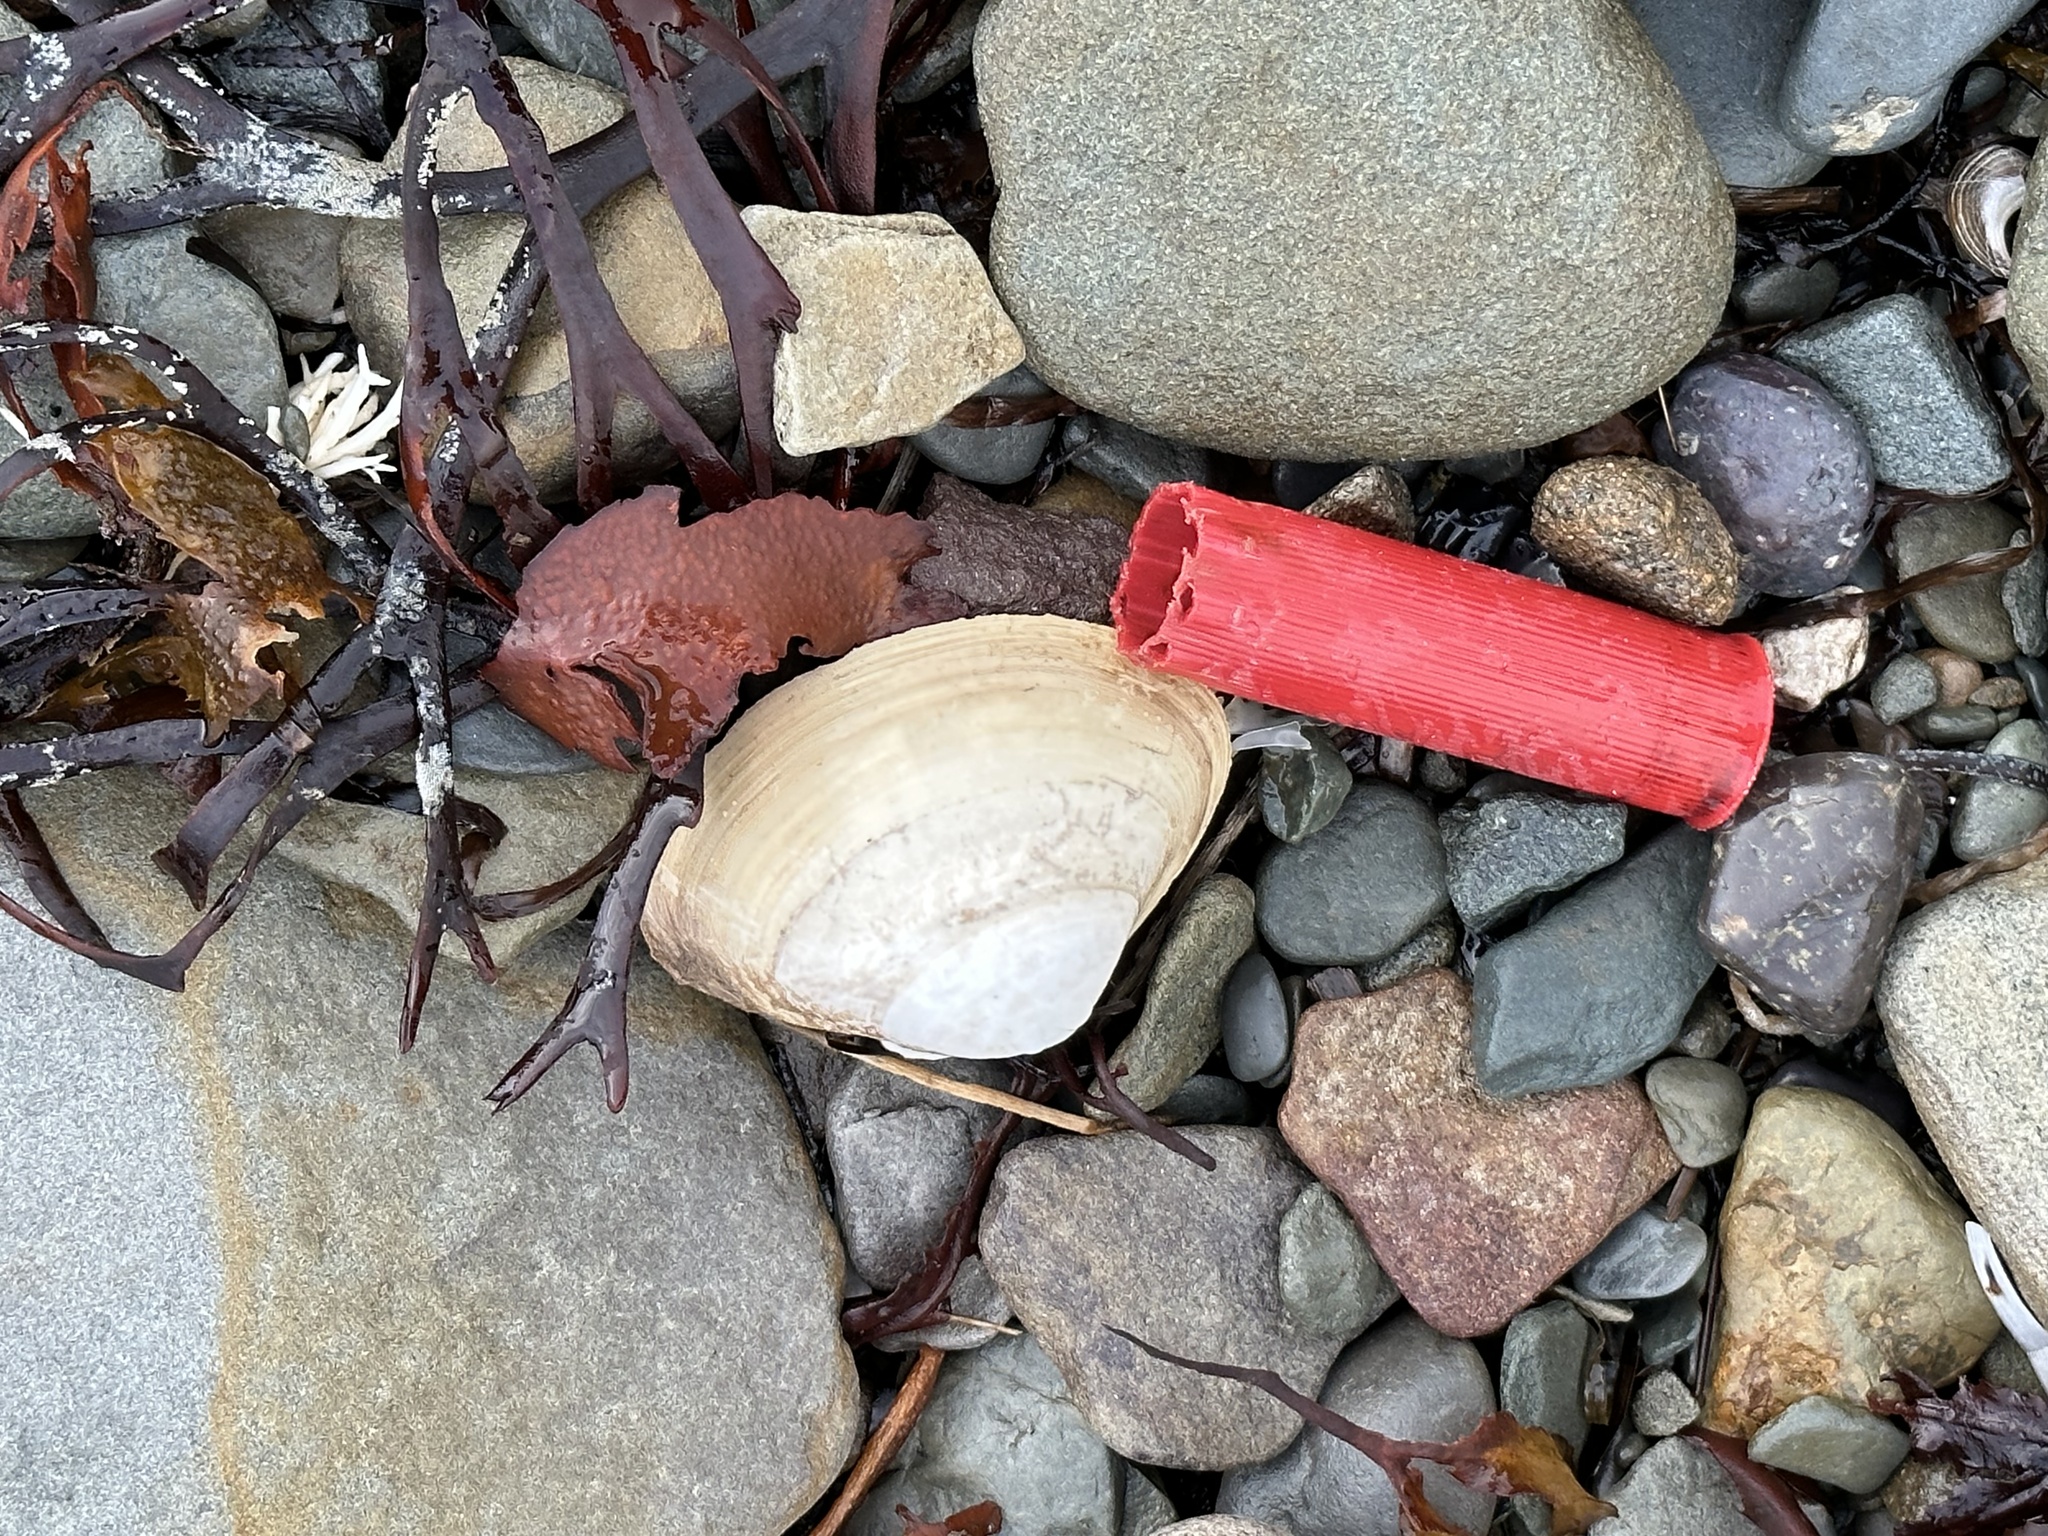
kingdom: Animalia
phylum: Mollusca
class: Bivalvia
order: Venerida
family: Mactridae
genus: Spisula
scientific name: Spisula solidissima
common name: Atlantic surf clam
